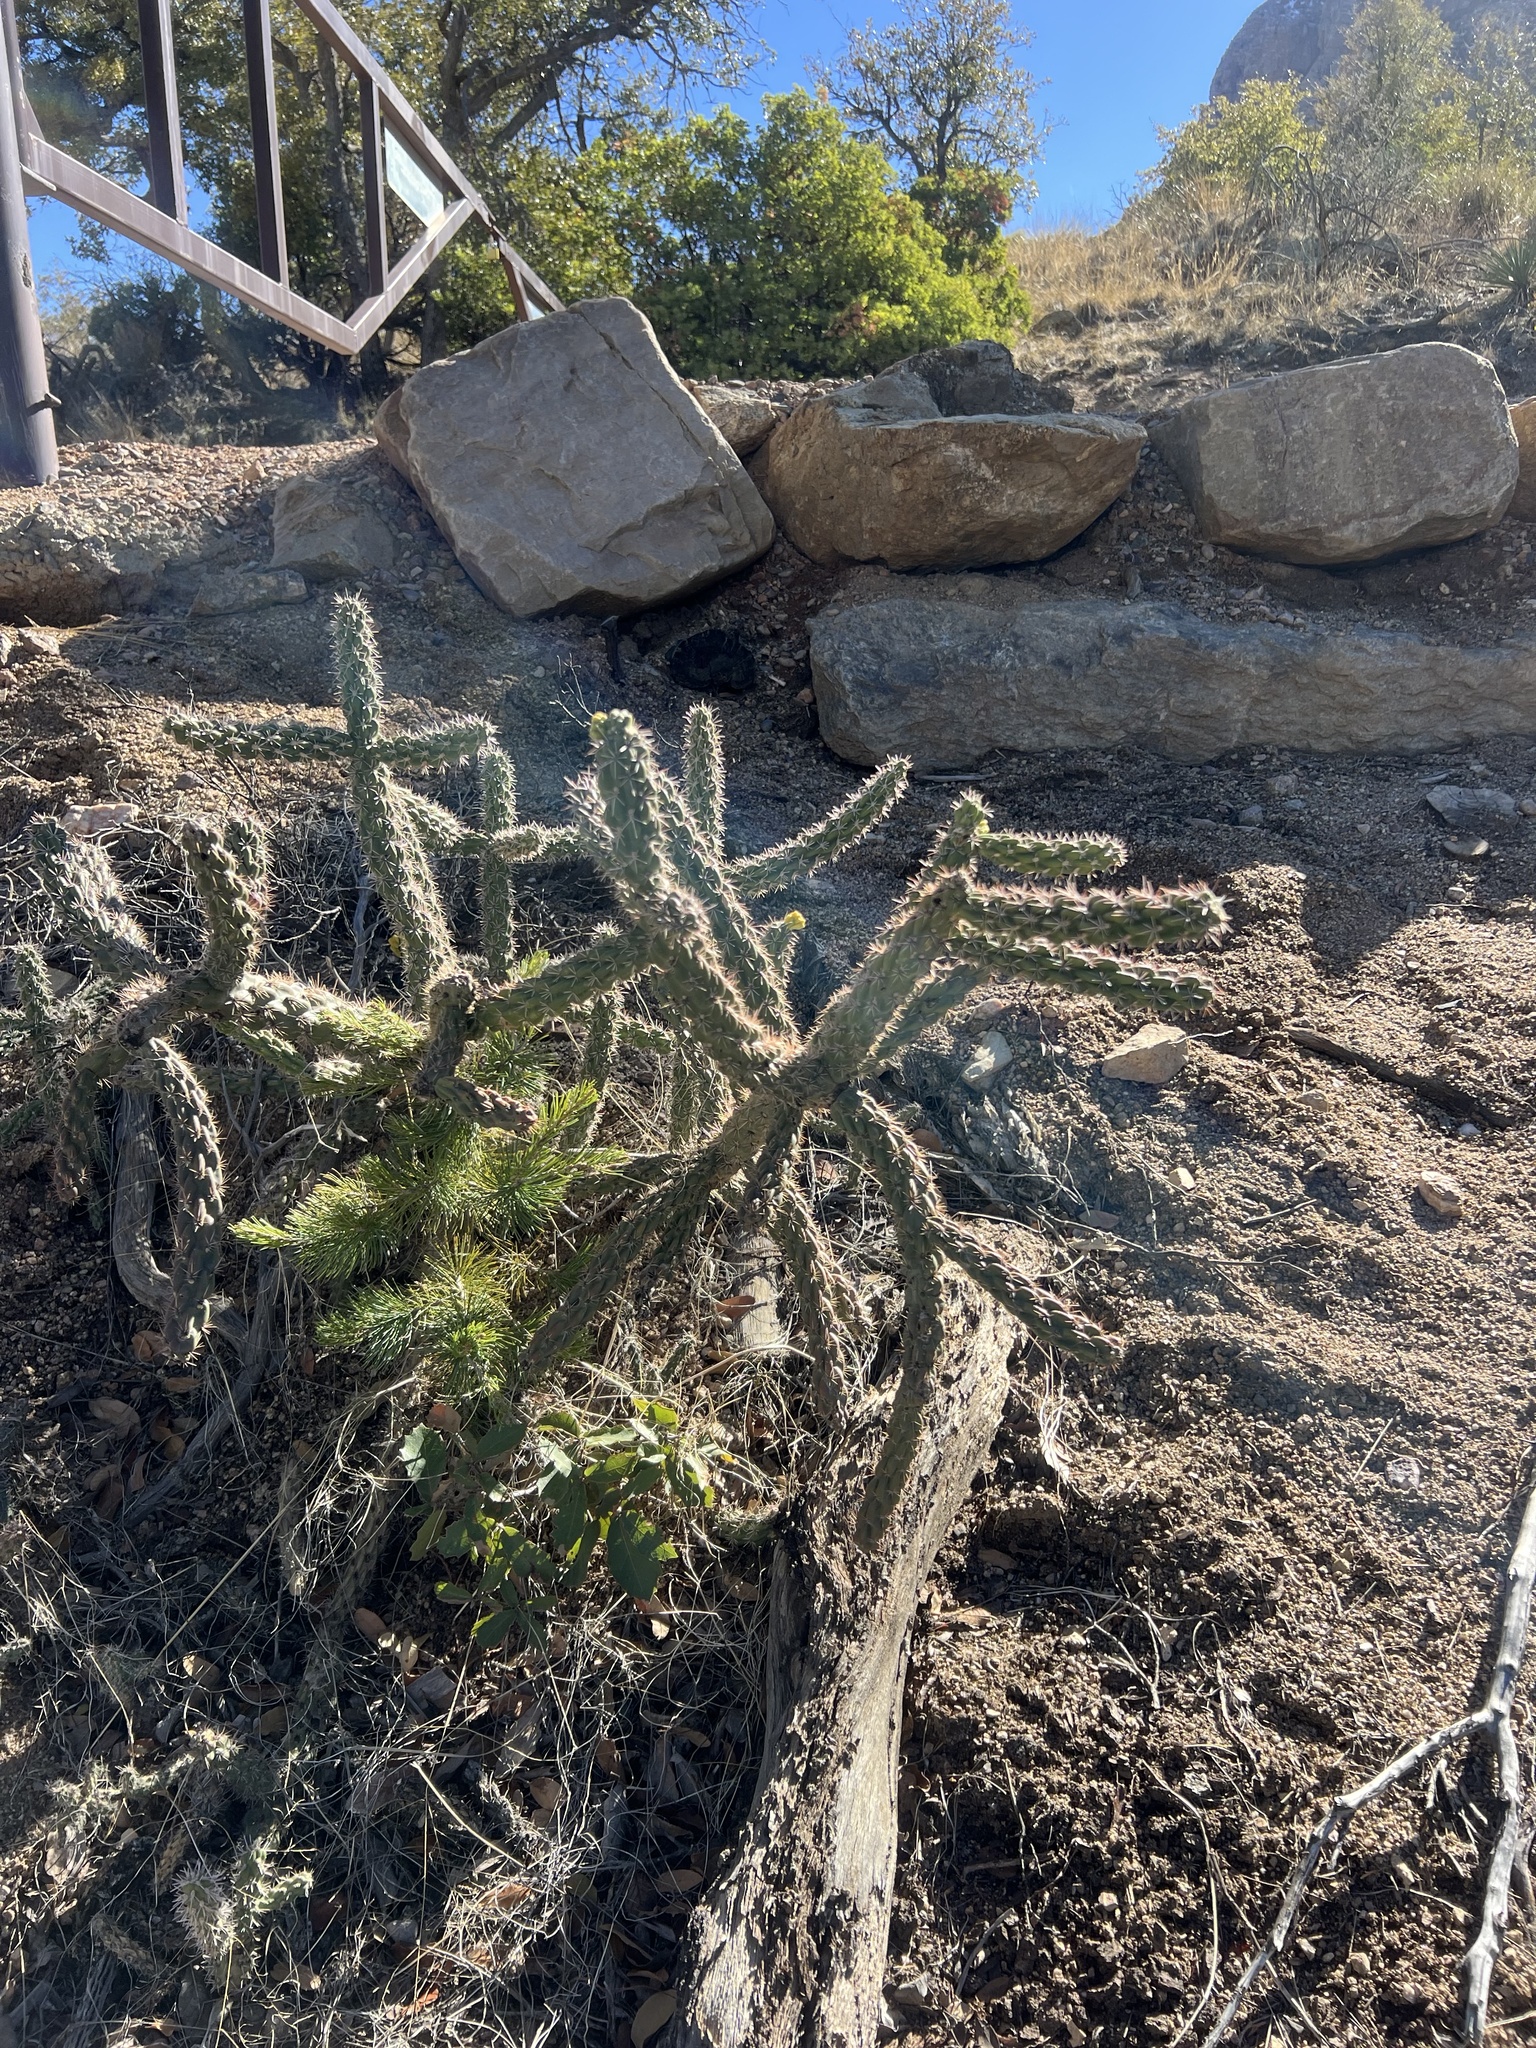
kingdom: Plantae
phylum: Tracheophyta
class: Magnoliopsida
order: Caryophyllales
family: Cactaceae
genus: Cylindropuntia
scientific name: Cylindropuntia imbricata
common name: Candelabrum cactus
